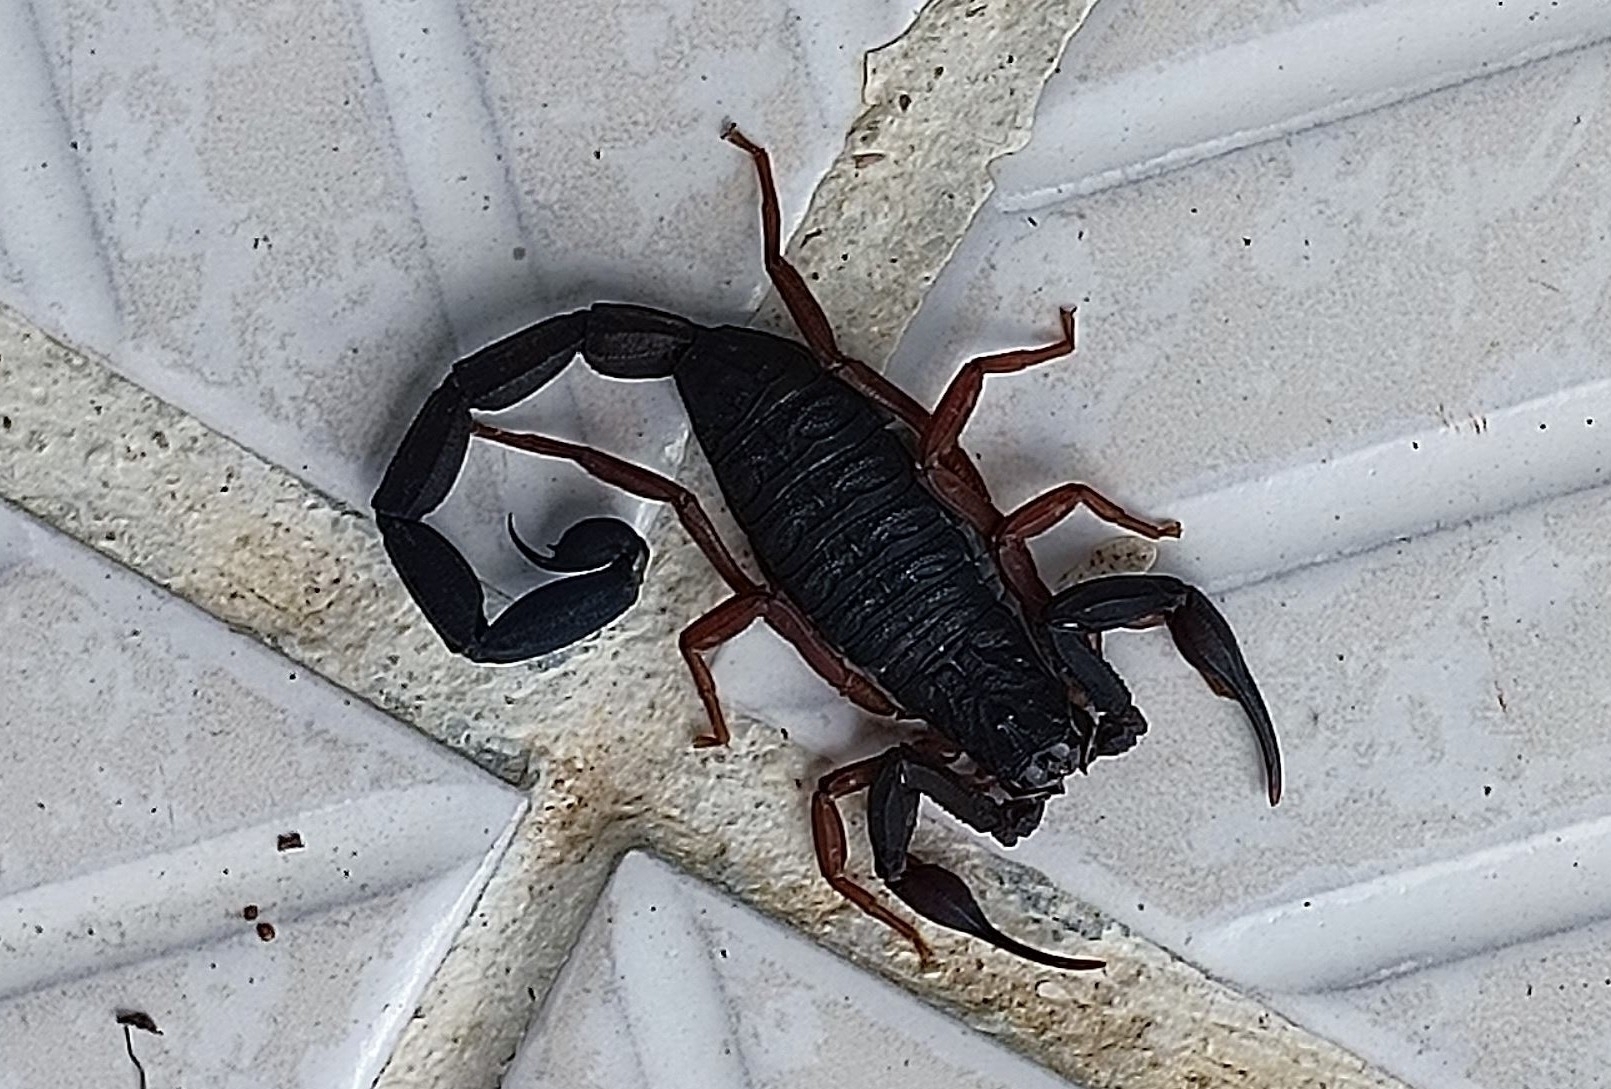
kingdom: Animalia
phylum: Arthropoda
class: Arachnida
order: Scorpiones
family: Buthidae
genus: Centruroides
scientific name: Centruroides gracilis
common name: Scorpions
